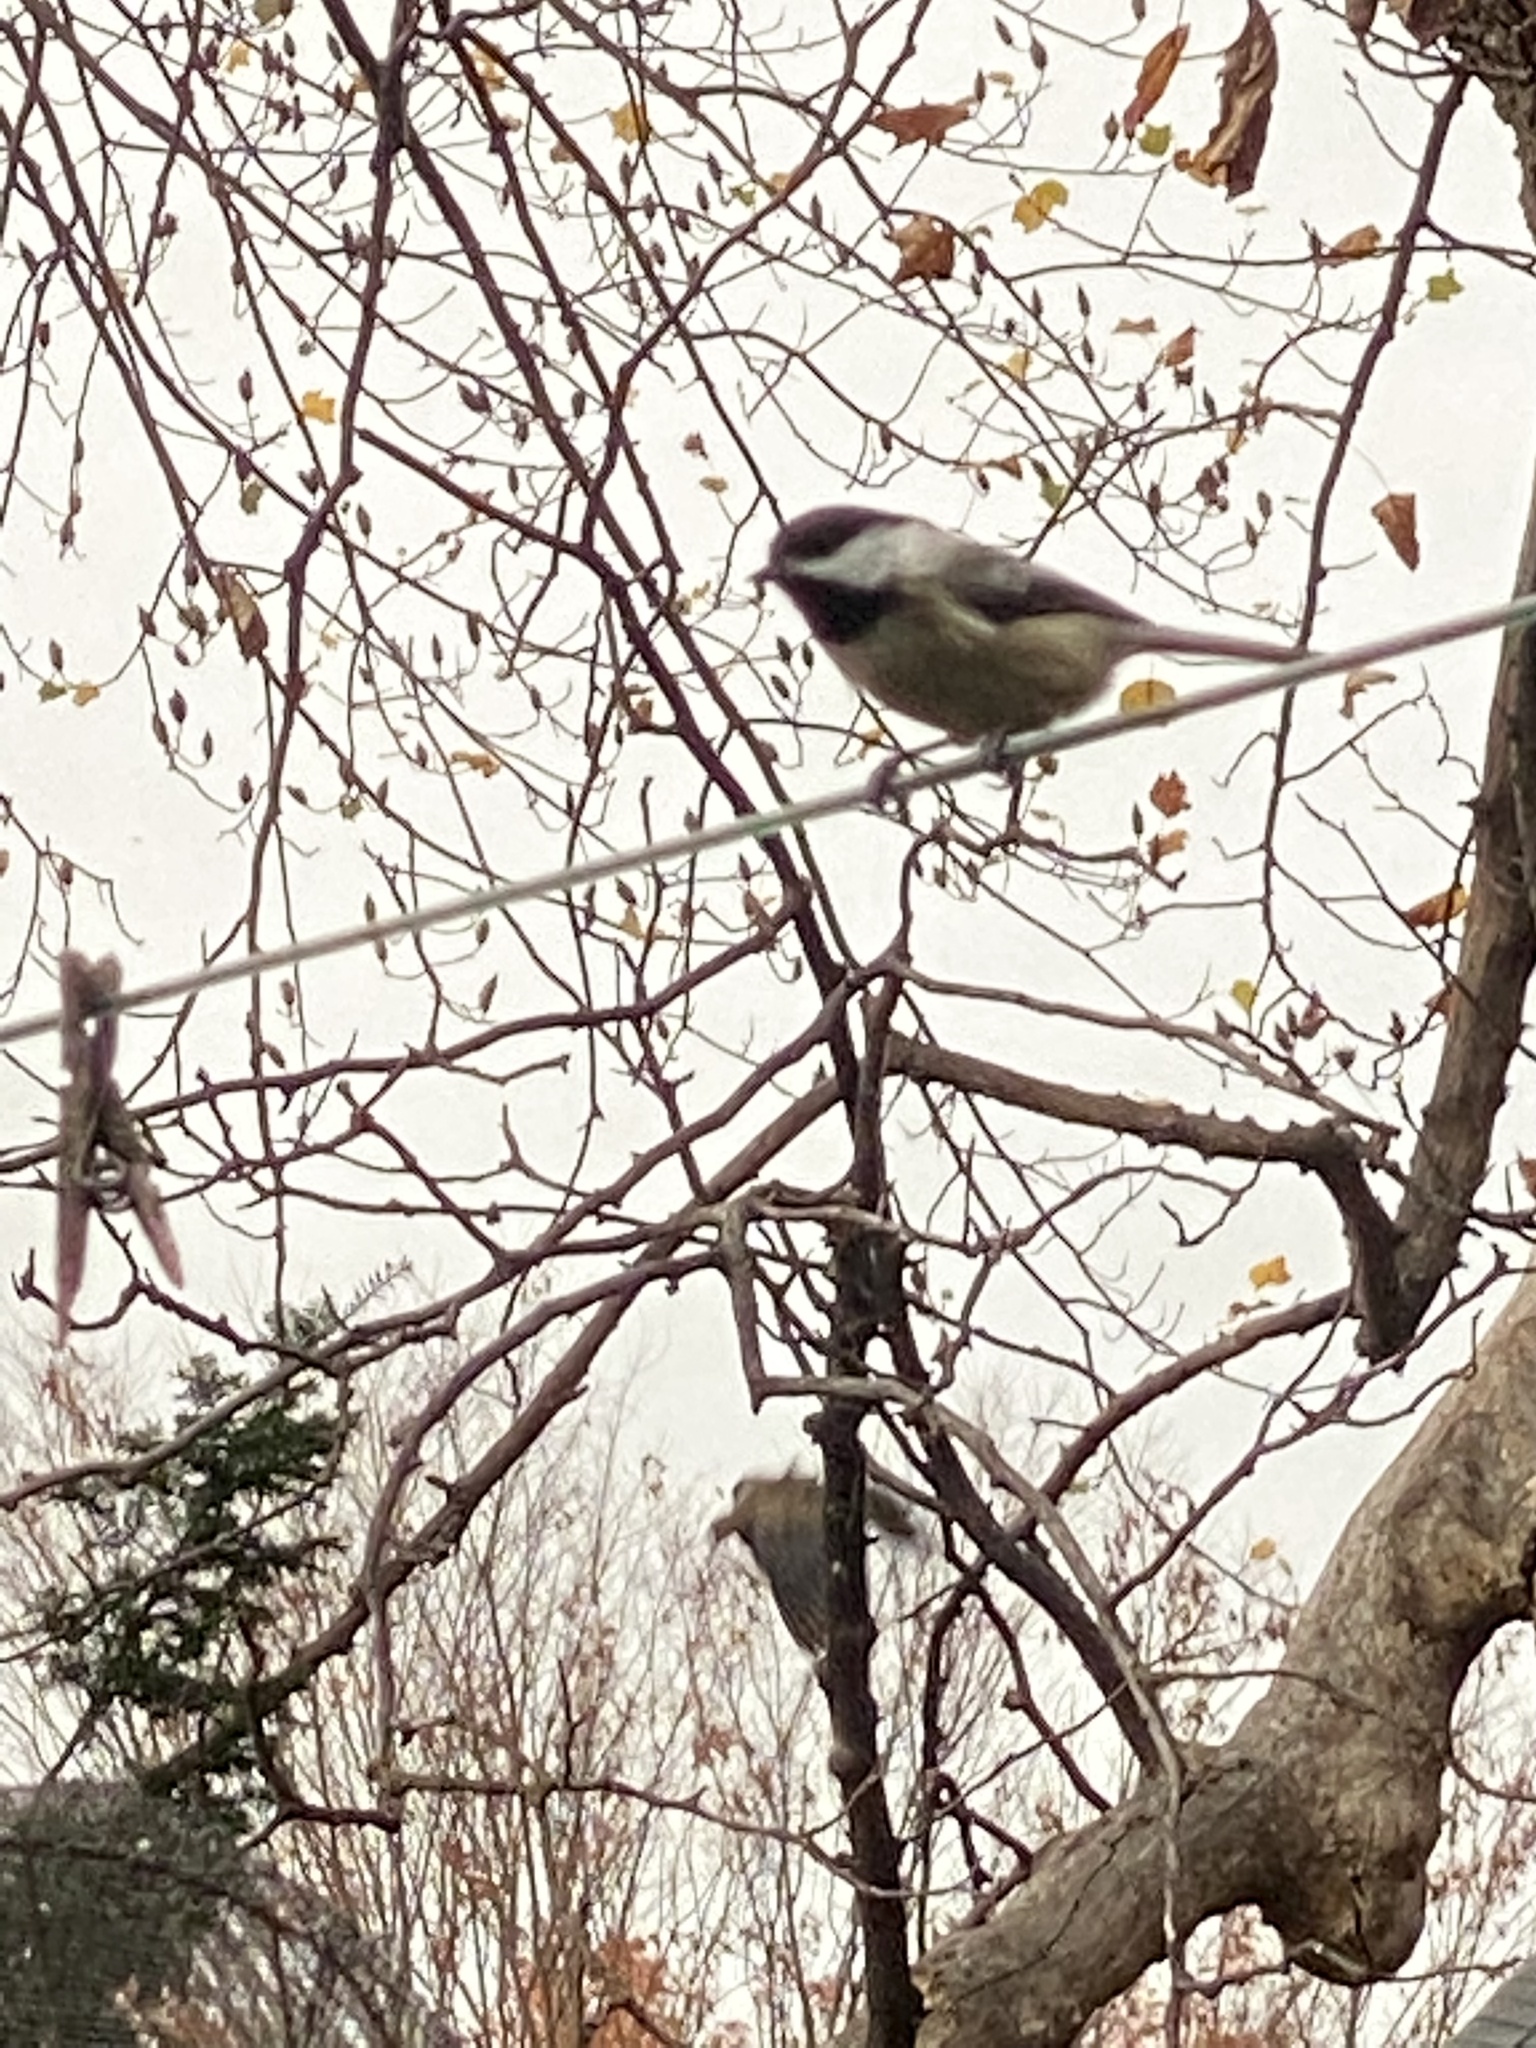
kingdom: Animalia
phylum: Chordata
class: Aves
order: Passeriformes
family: Paridae
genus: Poecile
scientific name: Poecile atricapillus
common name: Black-capped chickadee
